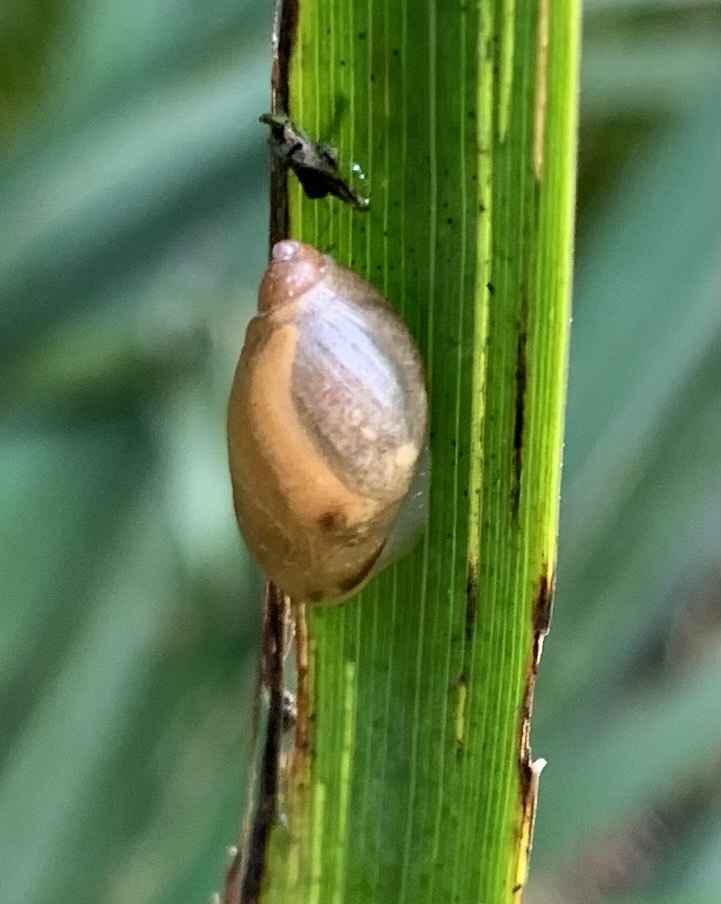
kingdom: Animalia
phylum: Mollusca
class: Gastropoda
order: Stylommatophora
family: Succineidae
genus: Succinea
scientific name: Succinea putris
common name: European ambersnail
